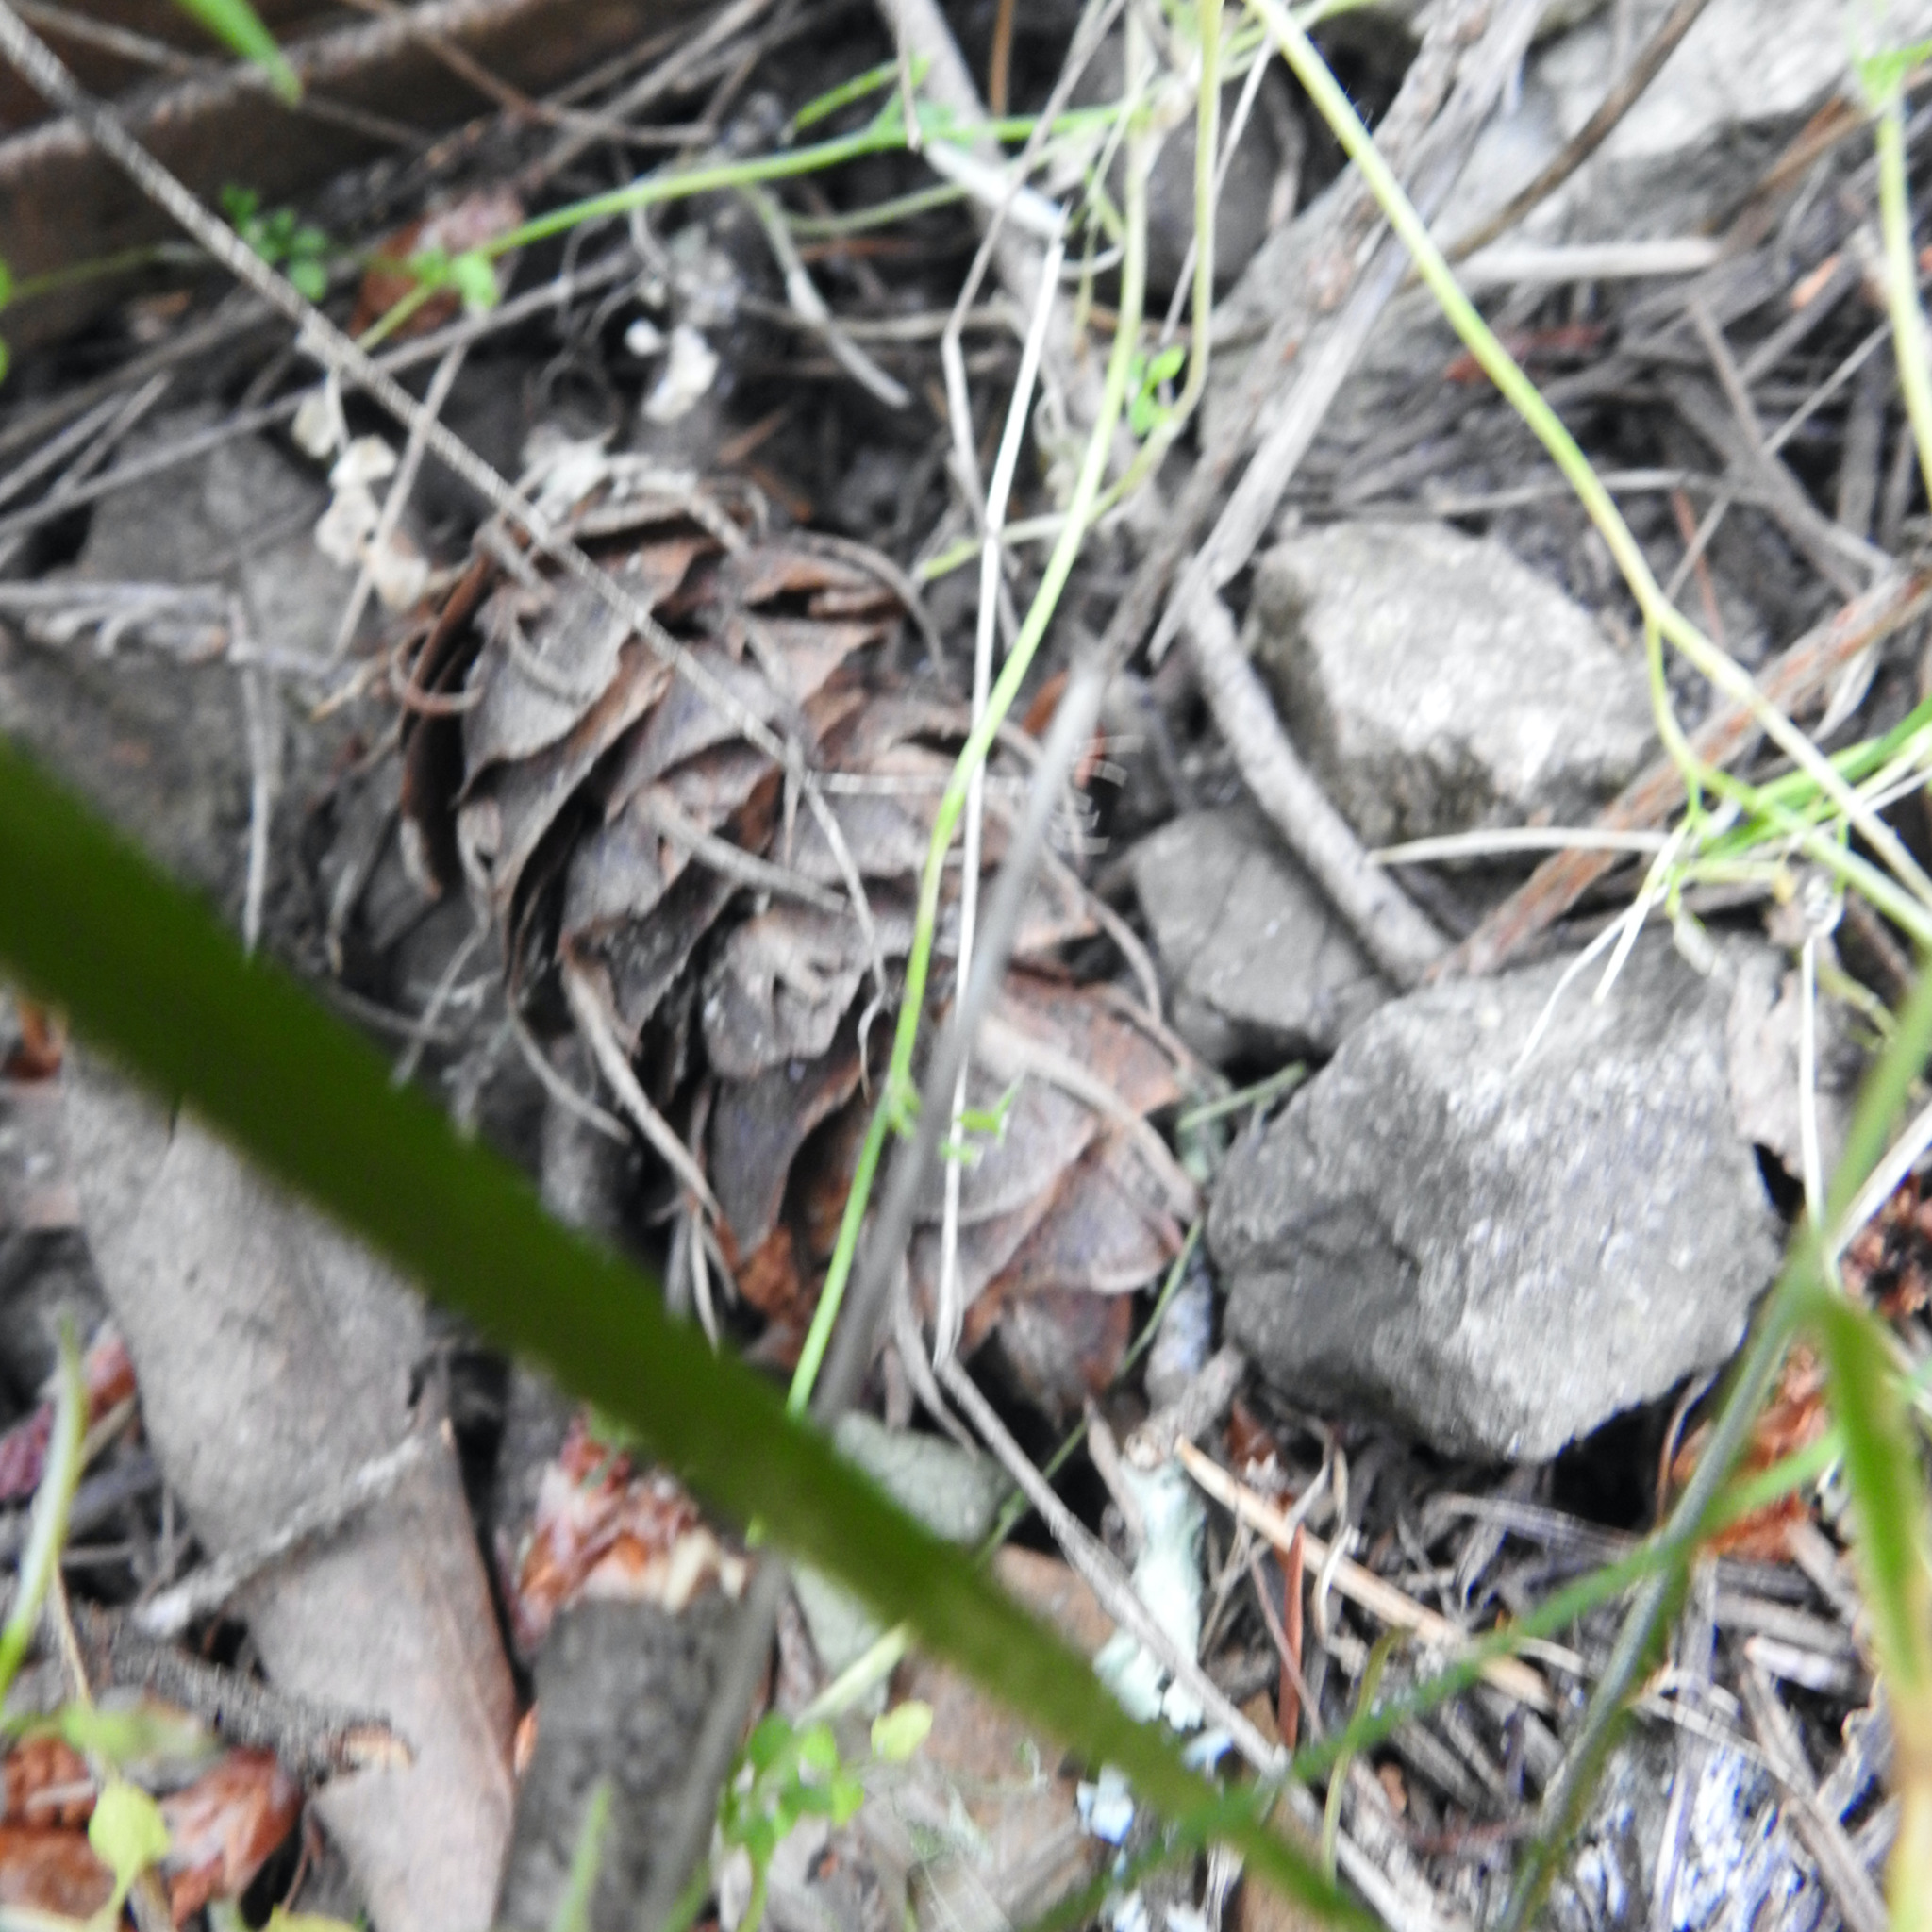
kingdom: Plantae
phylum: Tracheophyta
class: Pinopsida
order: Pinales
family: Pinaceae
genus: Pseudotsuga
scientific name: Pseudotsuga menziesii
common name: Douglas fir
